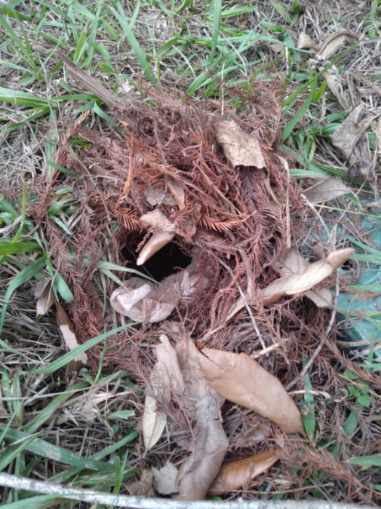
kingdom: Animalia
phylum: Chordata
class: Mammalia
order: Didelphimorphia
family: Didelphidae
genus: Didelphis
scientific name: Didelphis virginiana
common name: Virginia opossum
